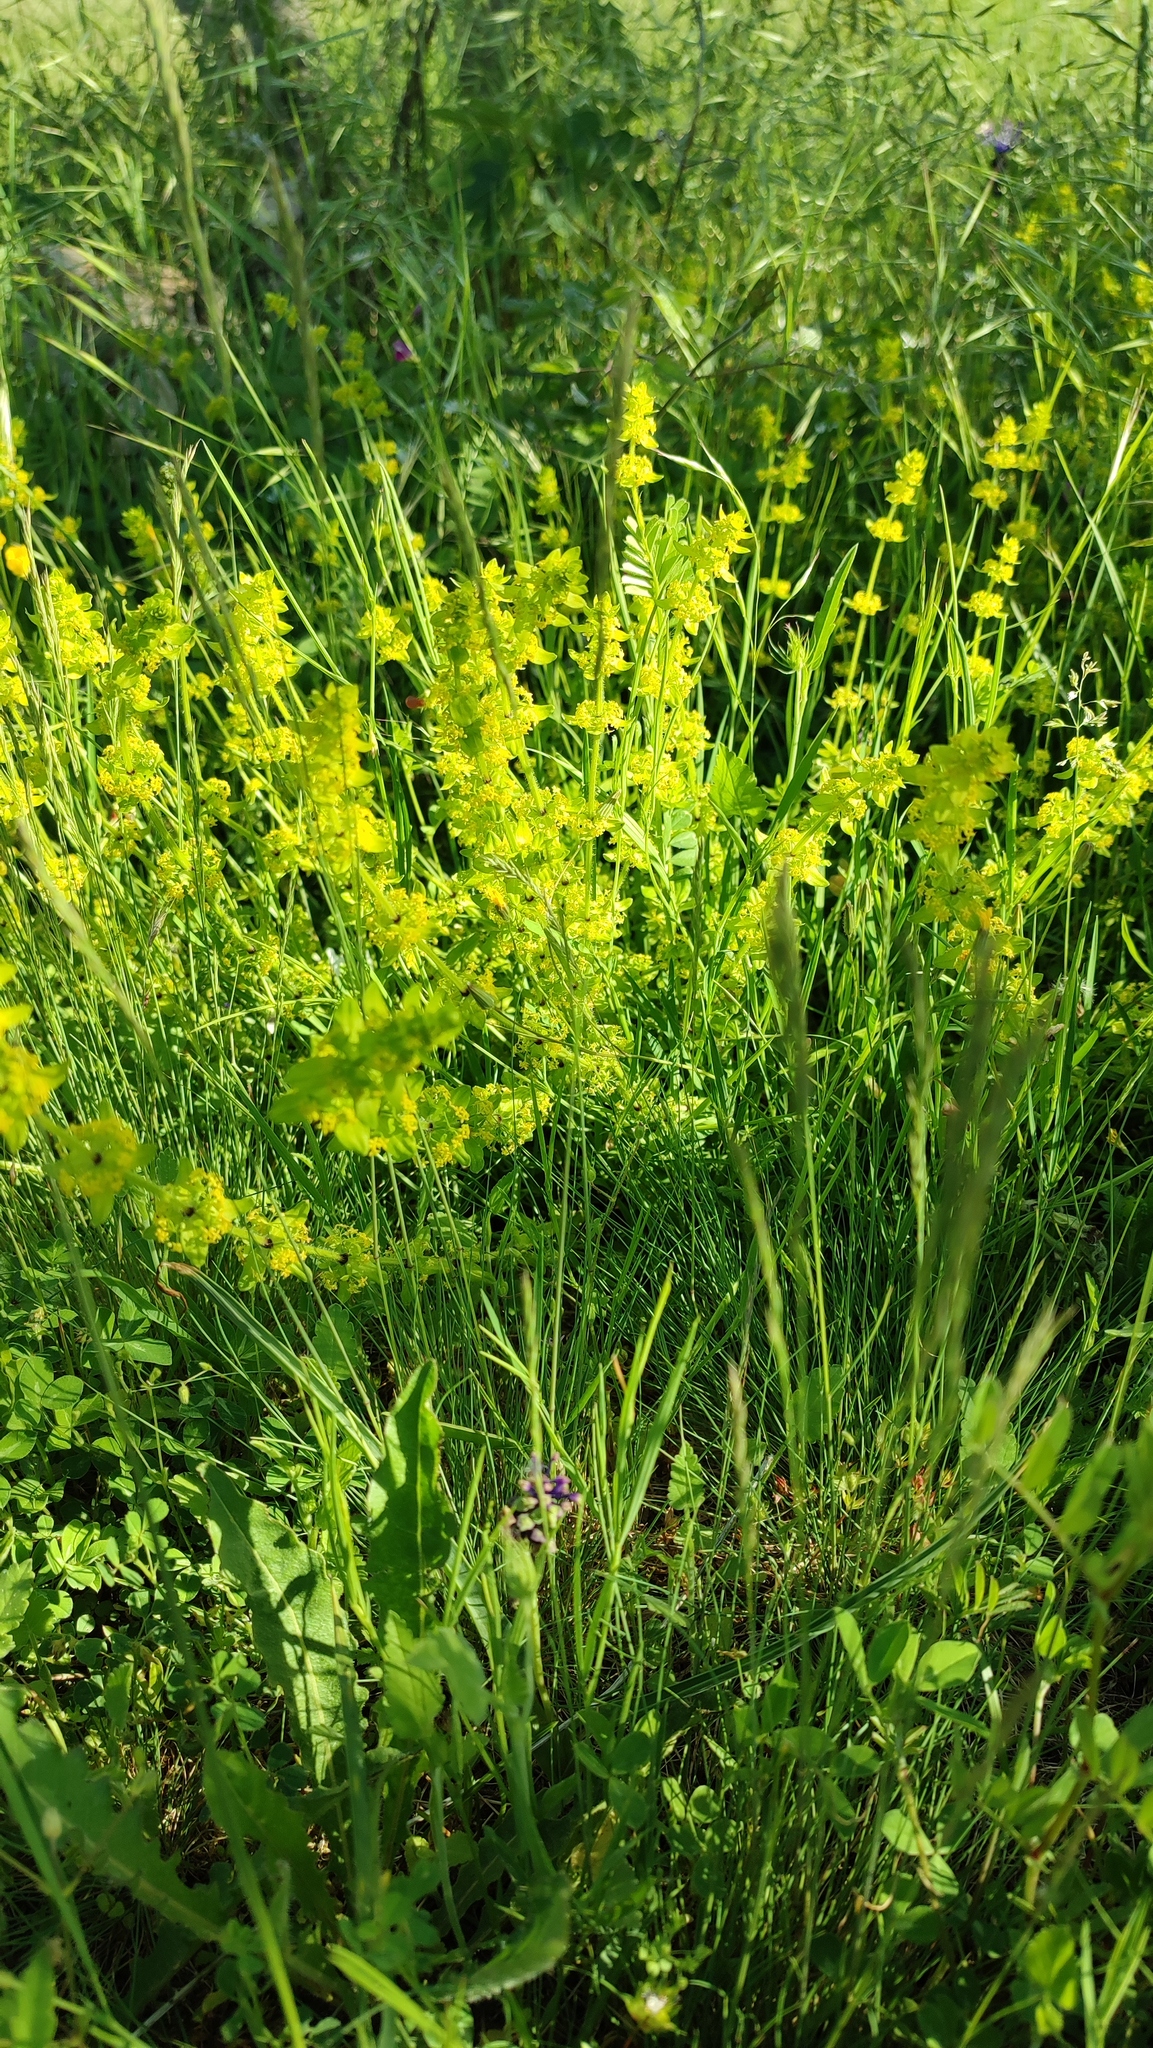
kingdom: Plantae
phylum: Tracheophyta
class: Magnoliopsida
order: Gentianales
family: Rubiaceae
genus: Cruciata
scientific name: Cruciata laevipes
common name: Crosswort
